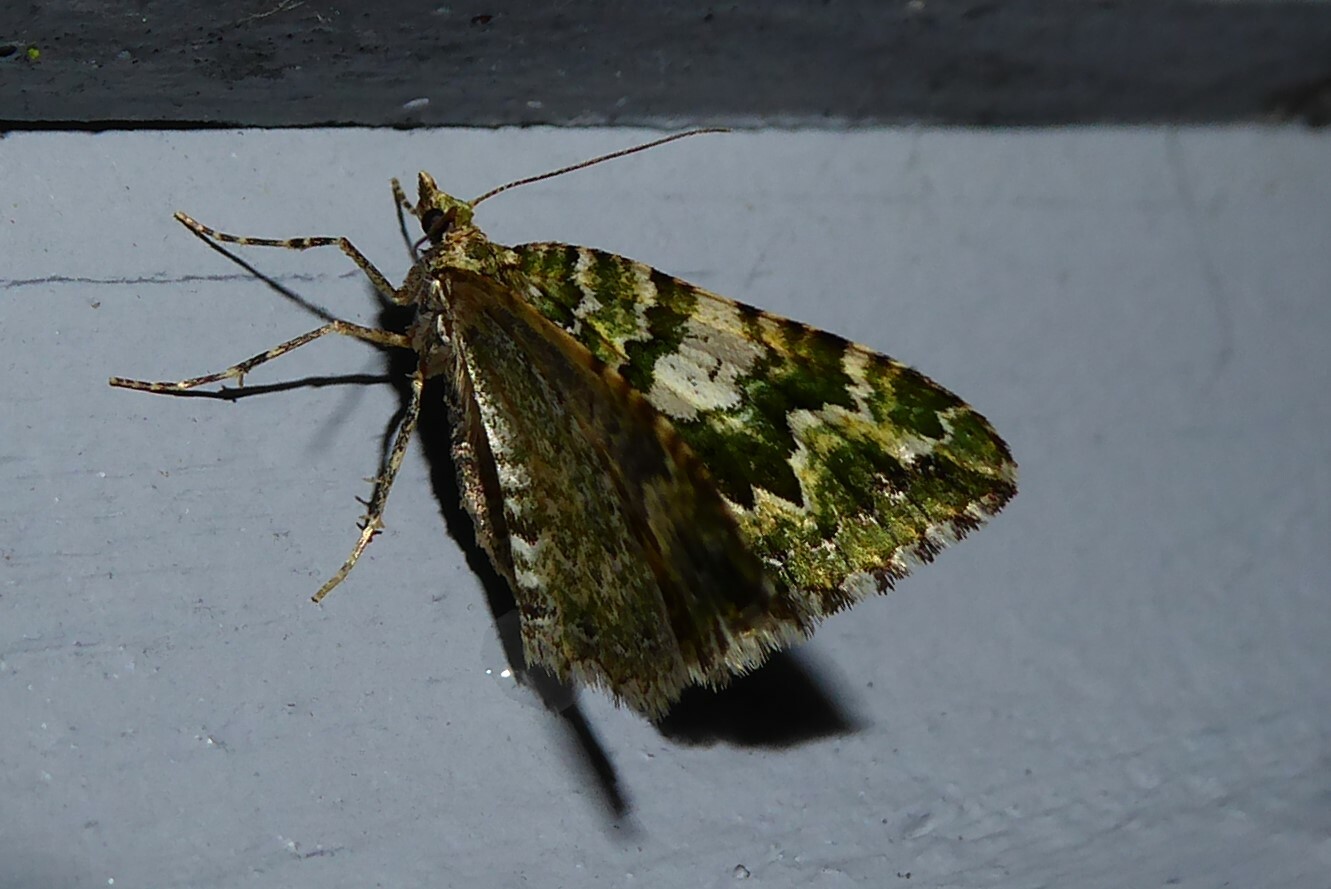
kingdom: Animalia
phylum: Arthropoda
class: Insecta
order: Lepidoptera
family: Geometridae
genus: Asaphodes
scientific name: Asaphodes beata
